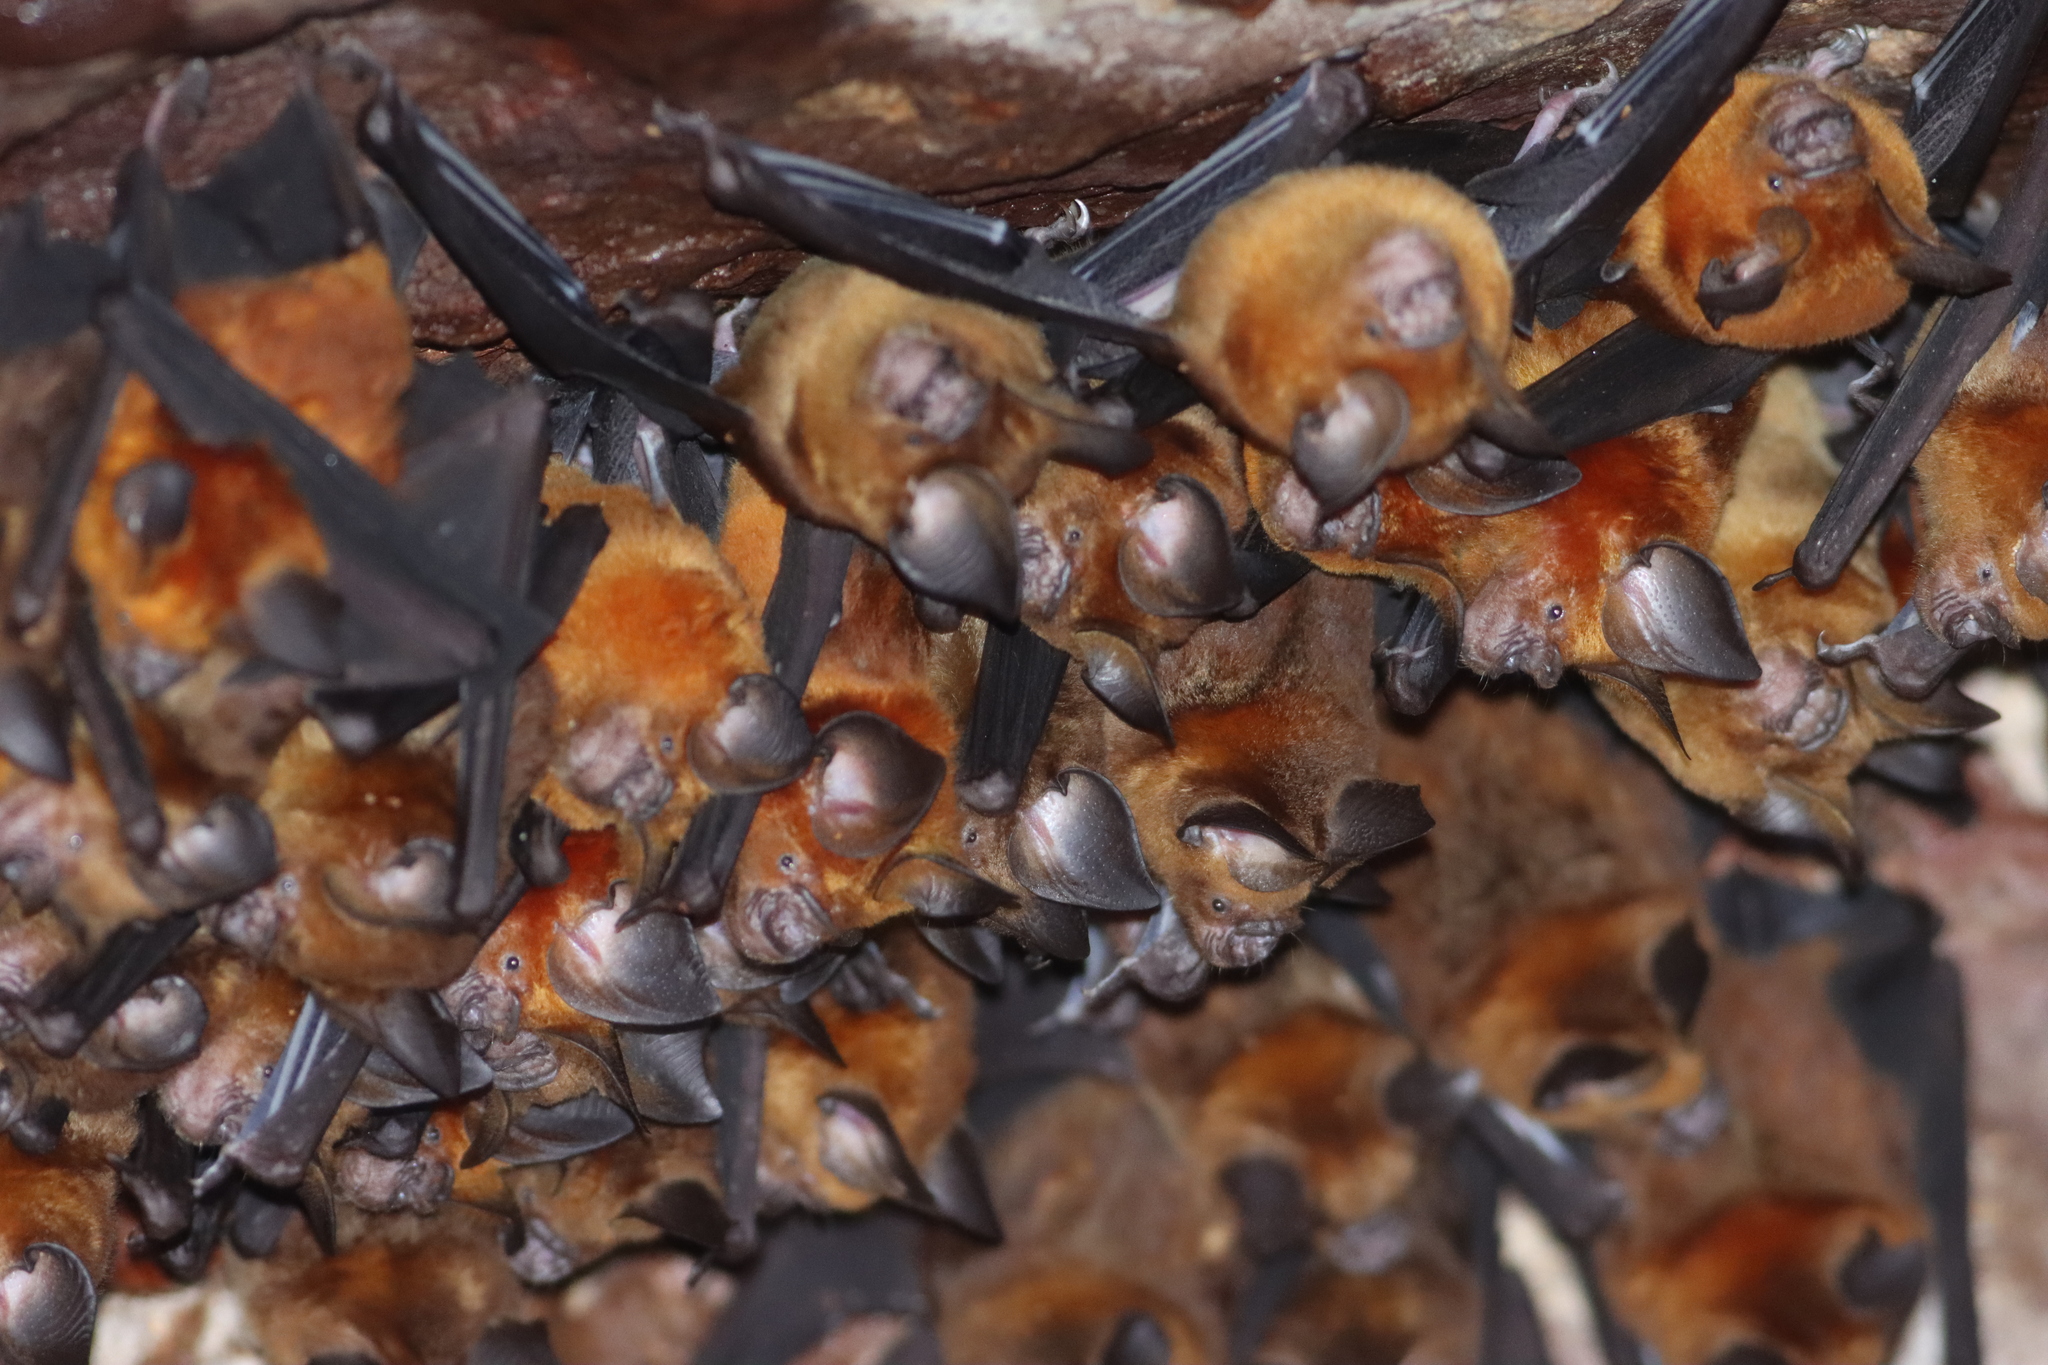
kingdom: Animalia
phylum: Chordata
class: Mammalia
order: Chiroptera
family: Hipposideridae
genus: Hipposideros
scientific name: Hipposideros grandis
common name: Grand leaf-nosed bat
